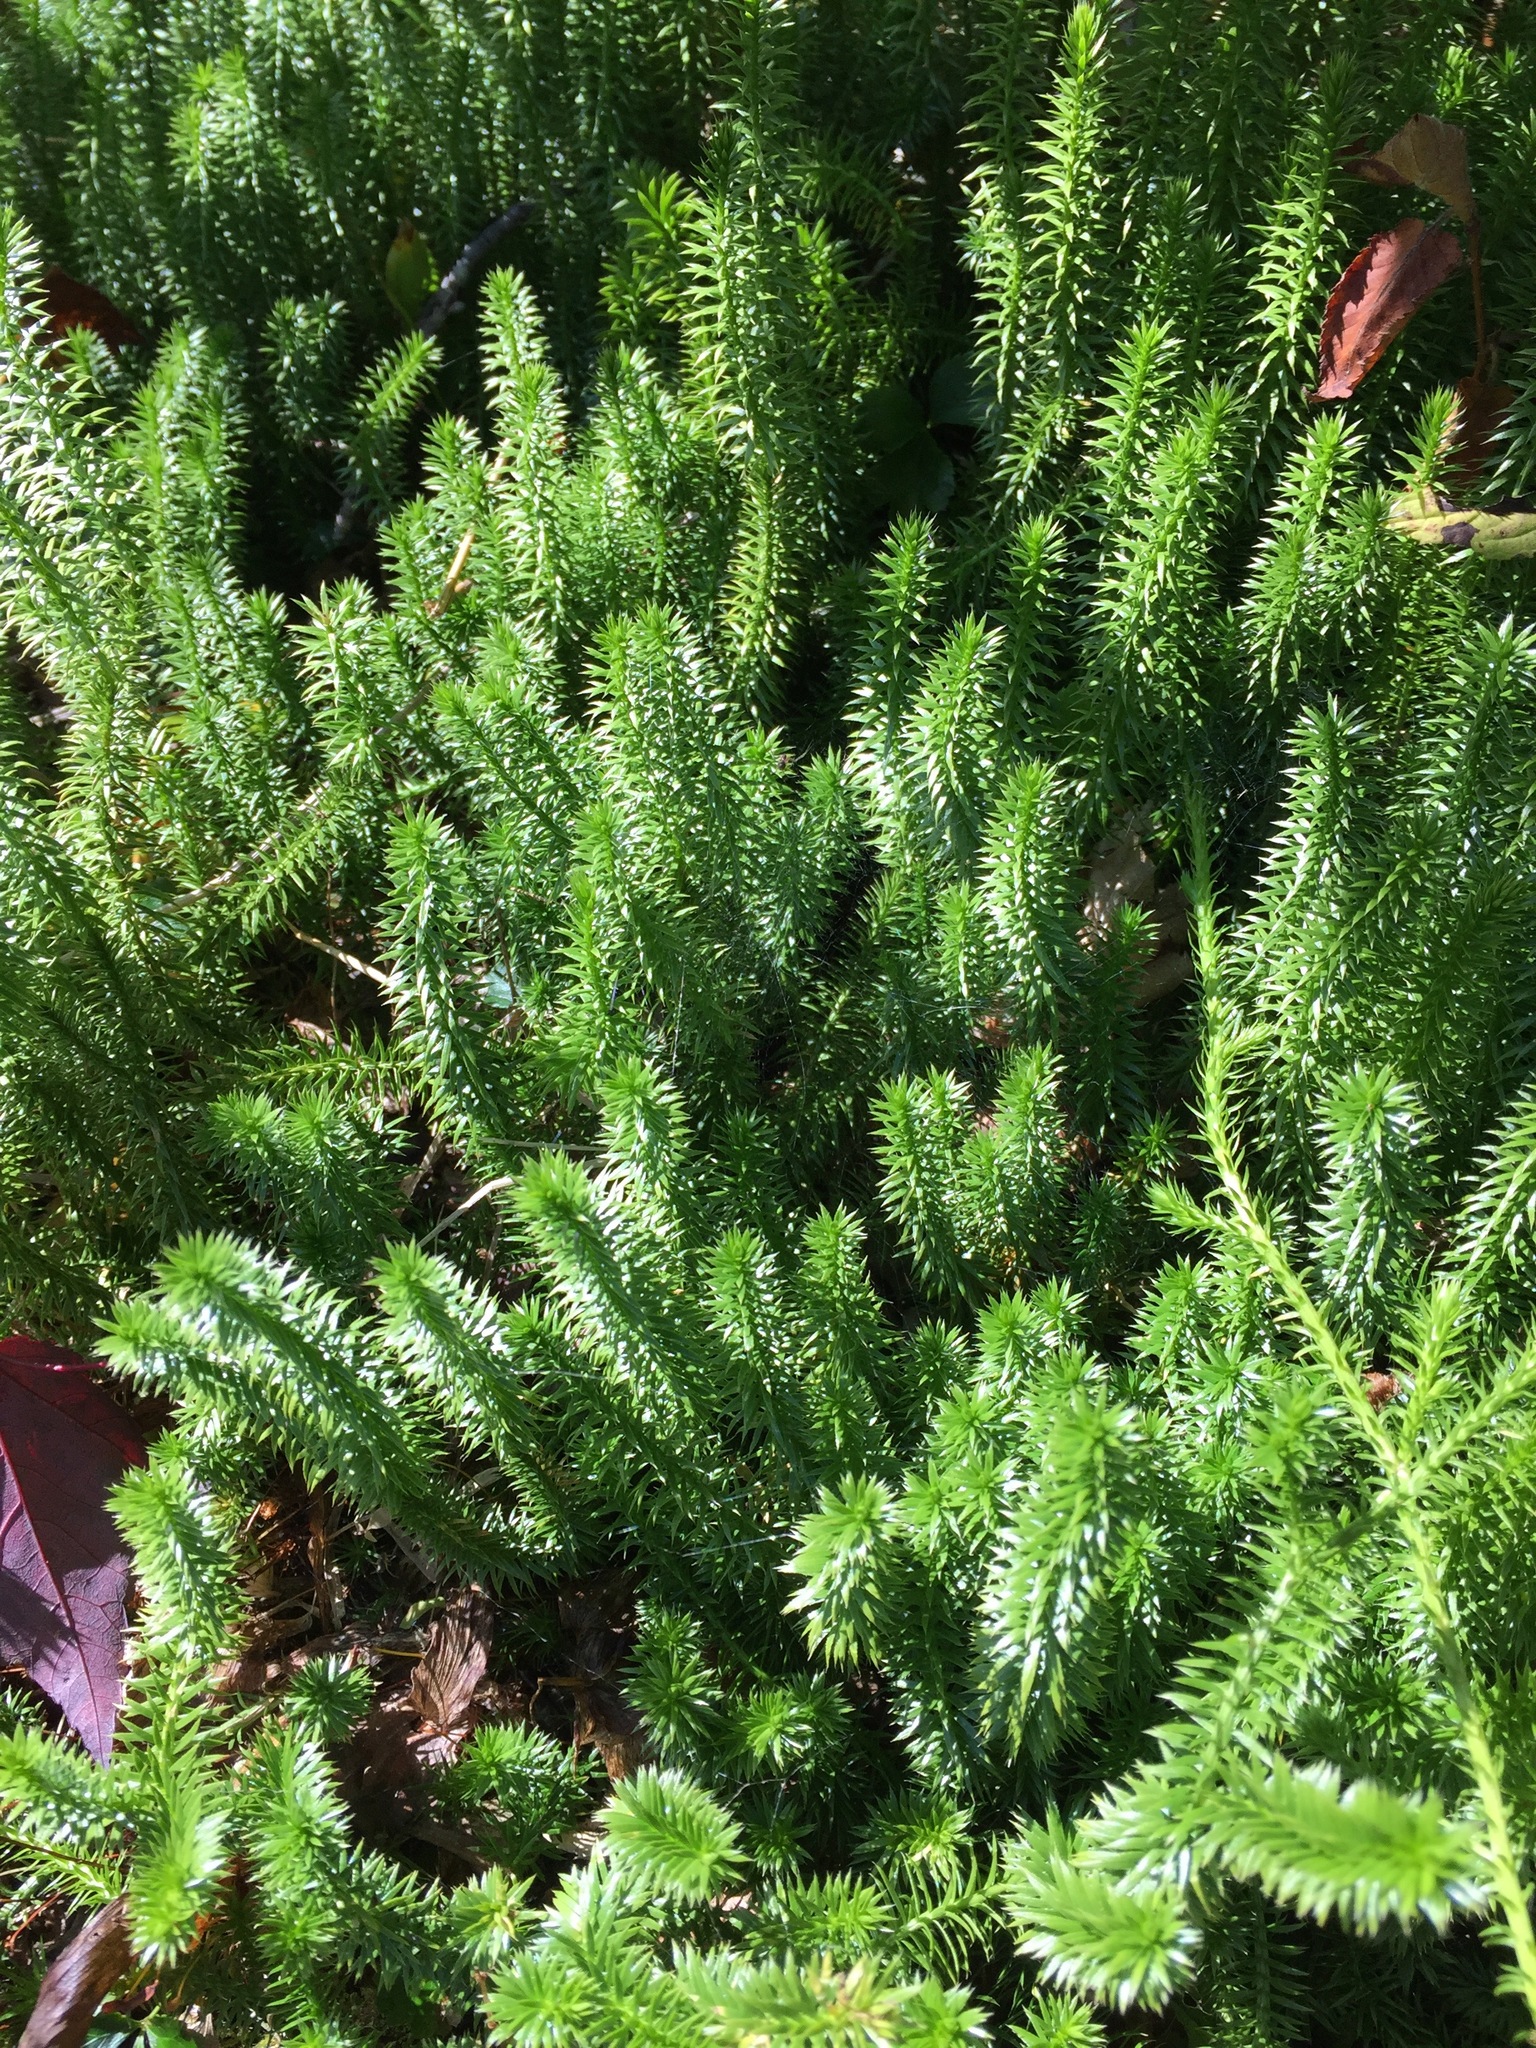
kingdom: Plantae
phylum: Tracheophyta
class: Lycopodiopsida
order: Lycopodiales
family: Lycopodiaceae
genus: Spinulum
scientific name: Spinulum annotinum
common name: Interrupted club-moss
